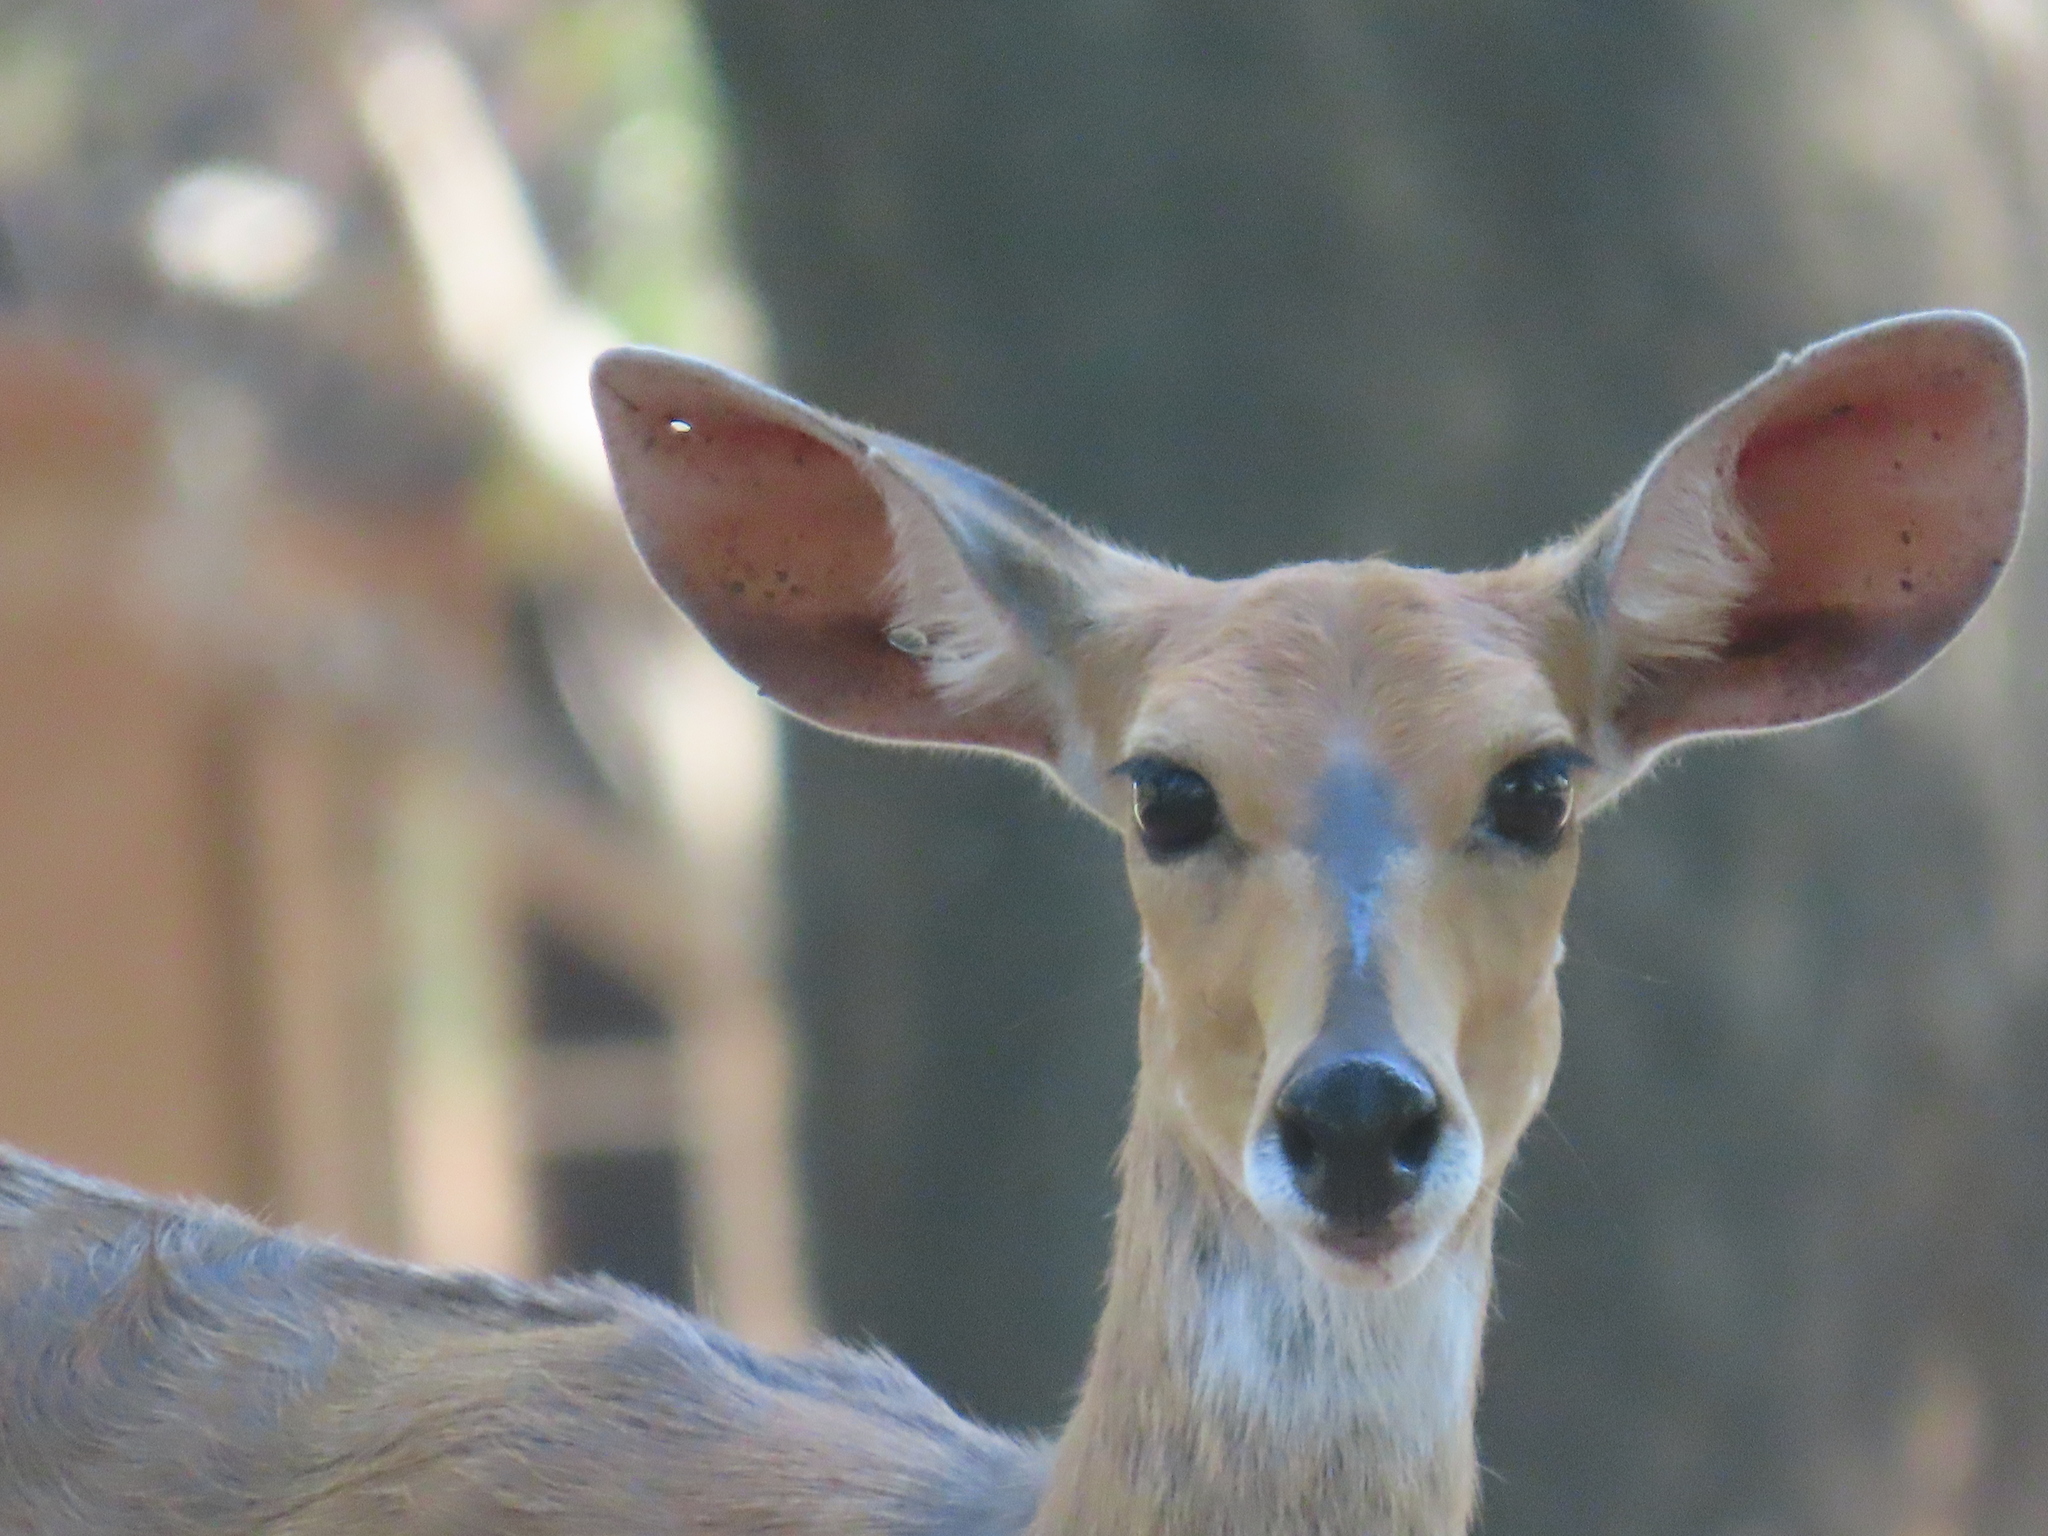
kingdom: Animalia
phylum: Chordata
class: Mammalia
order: Artiodactyla
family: Bovidae
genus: Tragelaphus
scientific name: Tragelaphus scriptus
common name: Bushbuck
